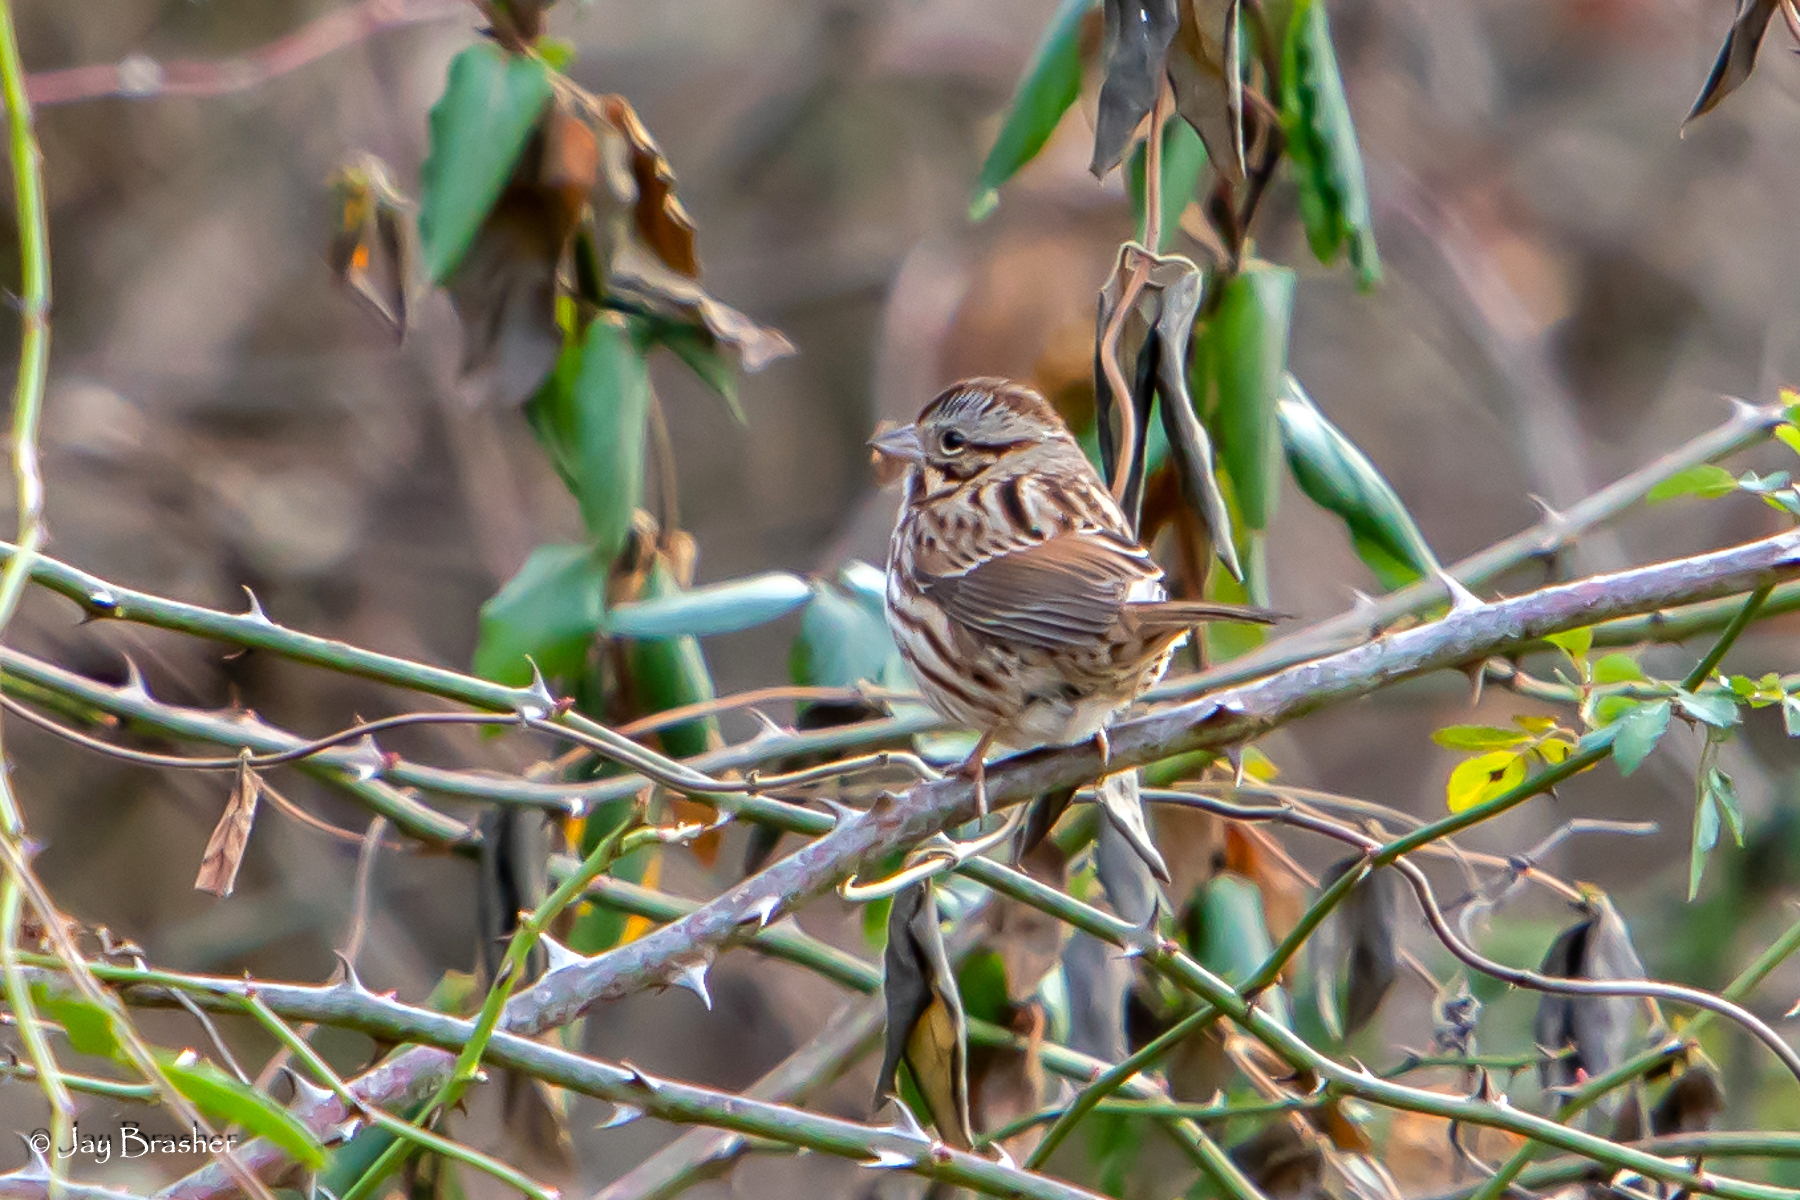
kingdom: Animalia
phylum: Chordata
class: Aves
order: Passeriformes
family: Passerellidae
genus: Melospiza
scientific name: Melospiza melodia
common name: Song sparrow
